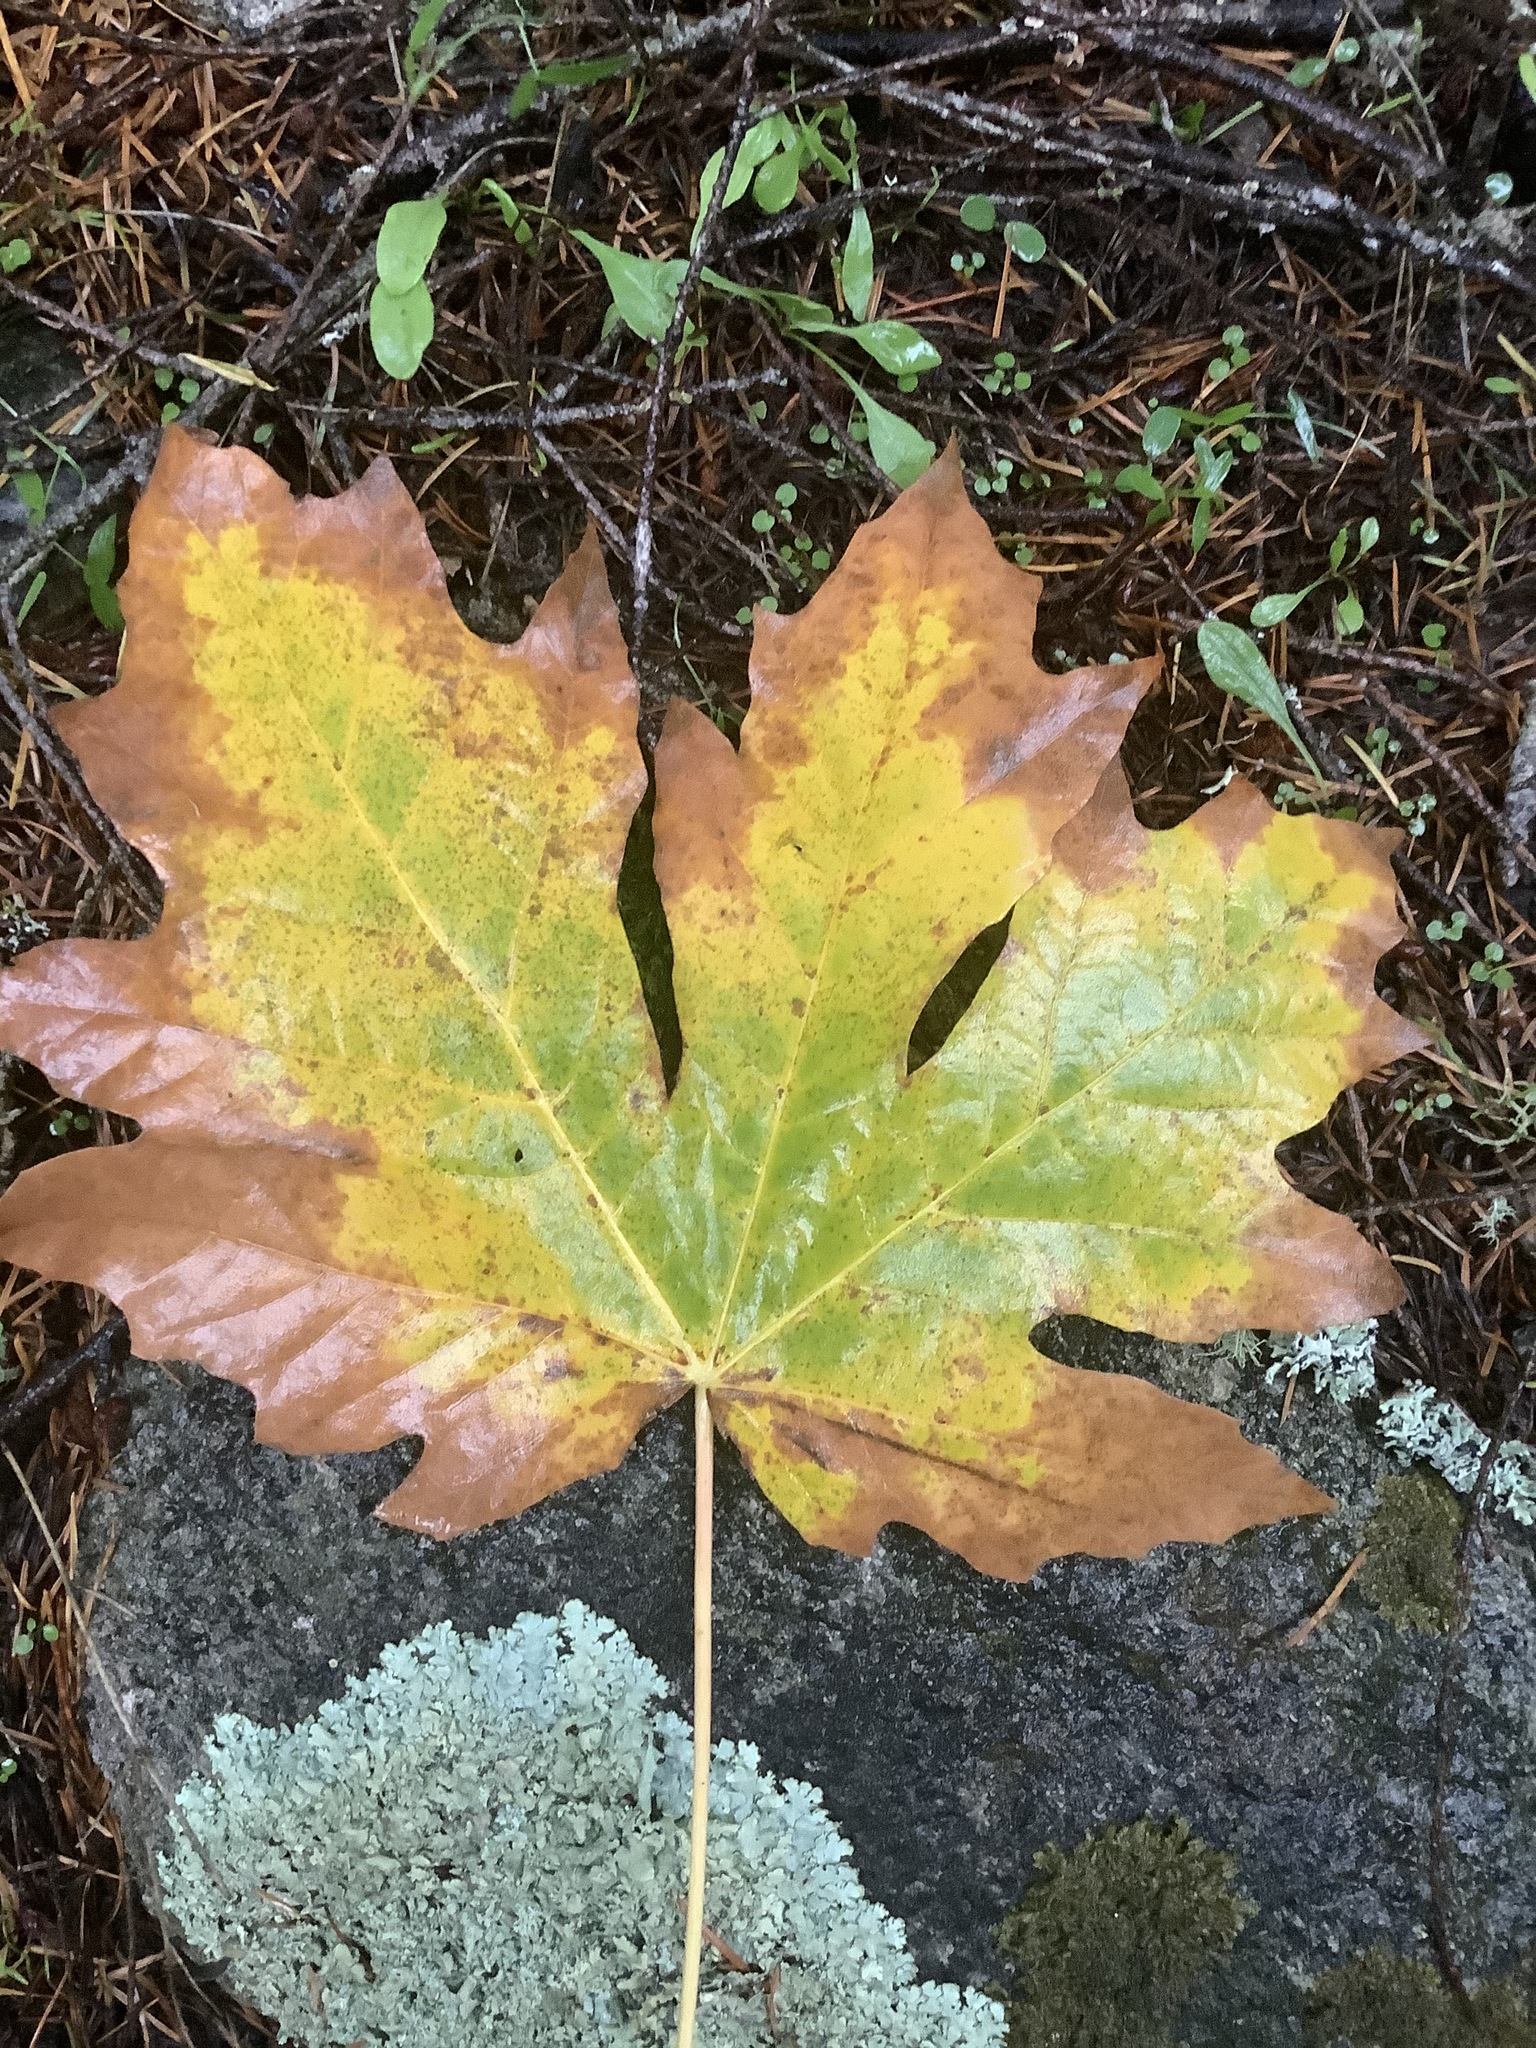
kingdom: Plantae
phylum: Tracheophyta
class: Magnoliopsida
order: Sapindales
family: Sapindaceae
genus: Acer
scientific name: Acer macrophyllum
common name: Oregon maple
